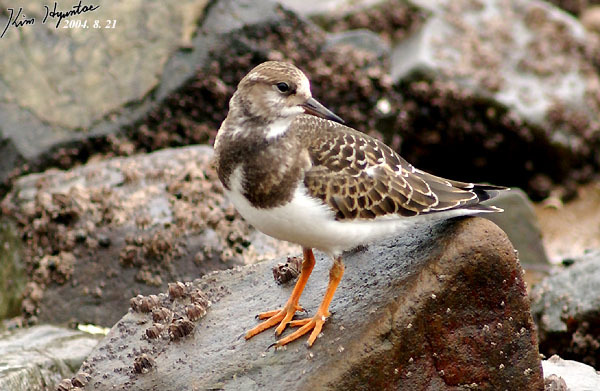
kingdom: Animalia
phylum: Chordata
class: Aves
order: Charadriiformes
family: Scolopacidae
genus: Arenaria
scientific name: Arenaria interpres
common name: Ruddy turnstone
